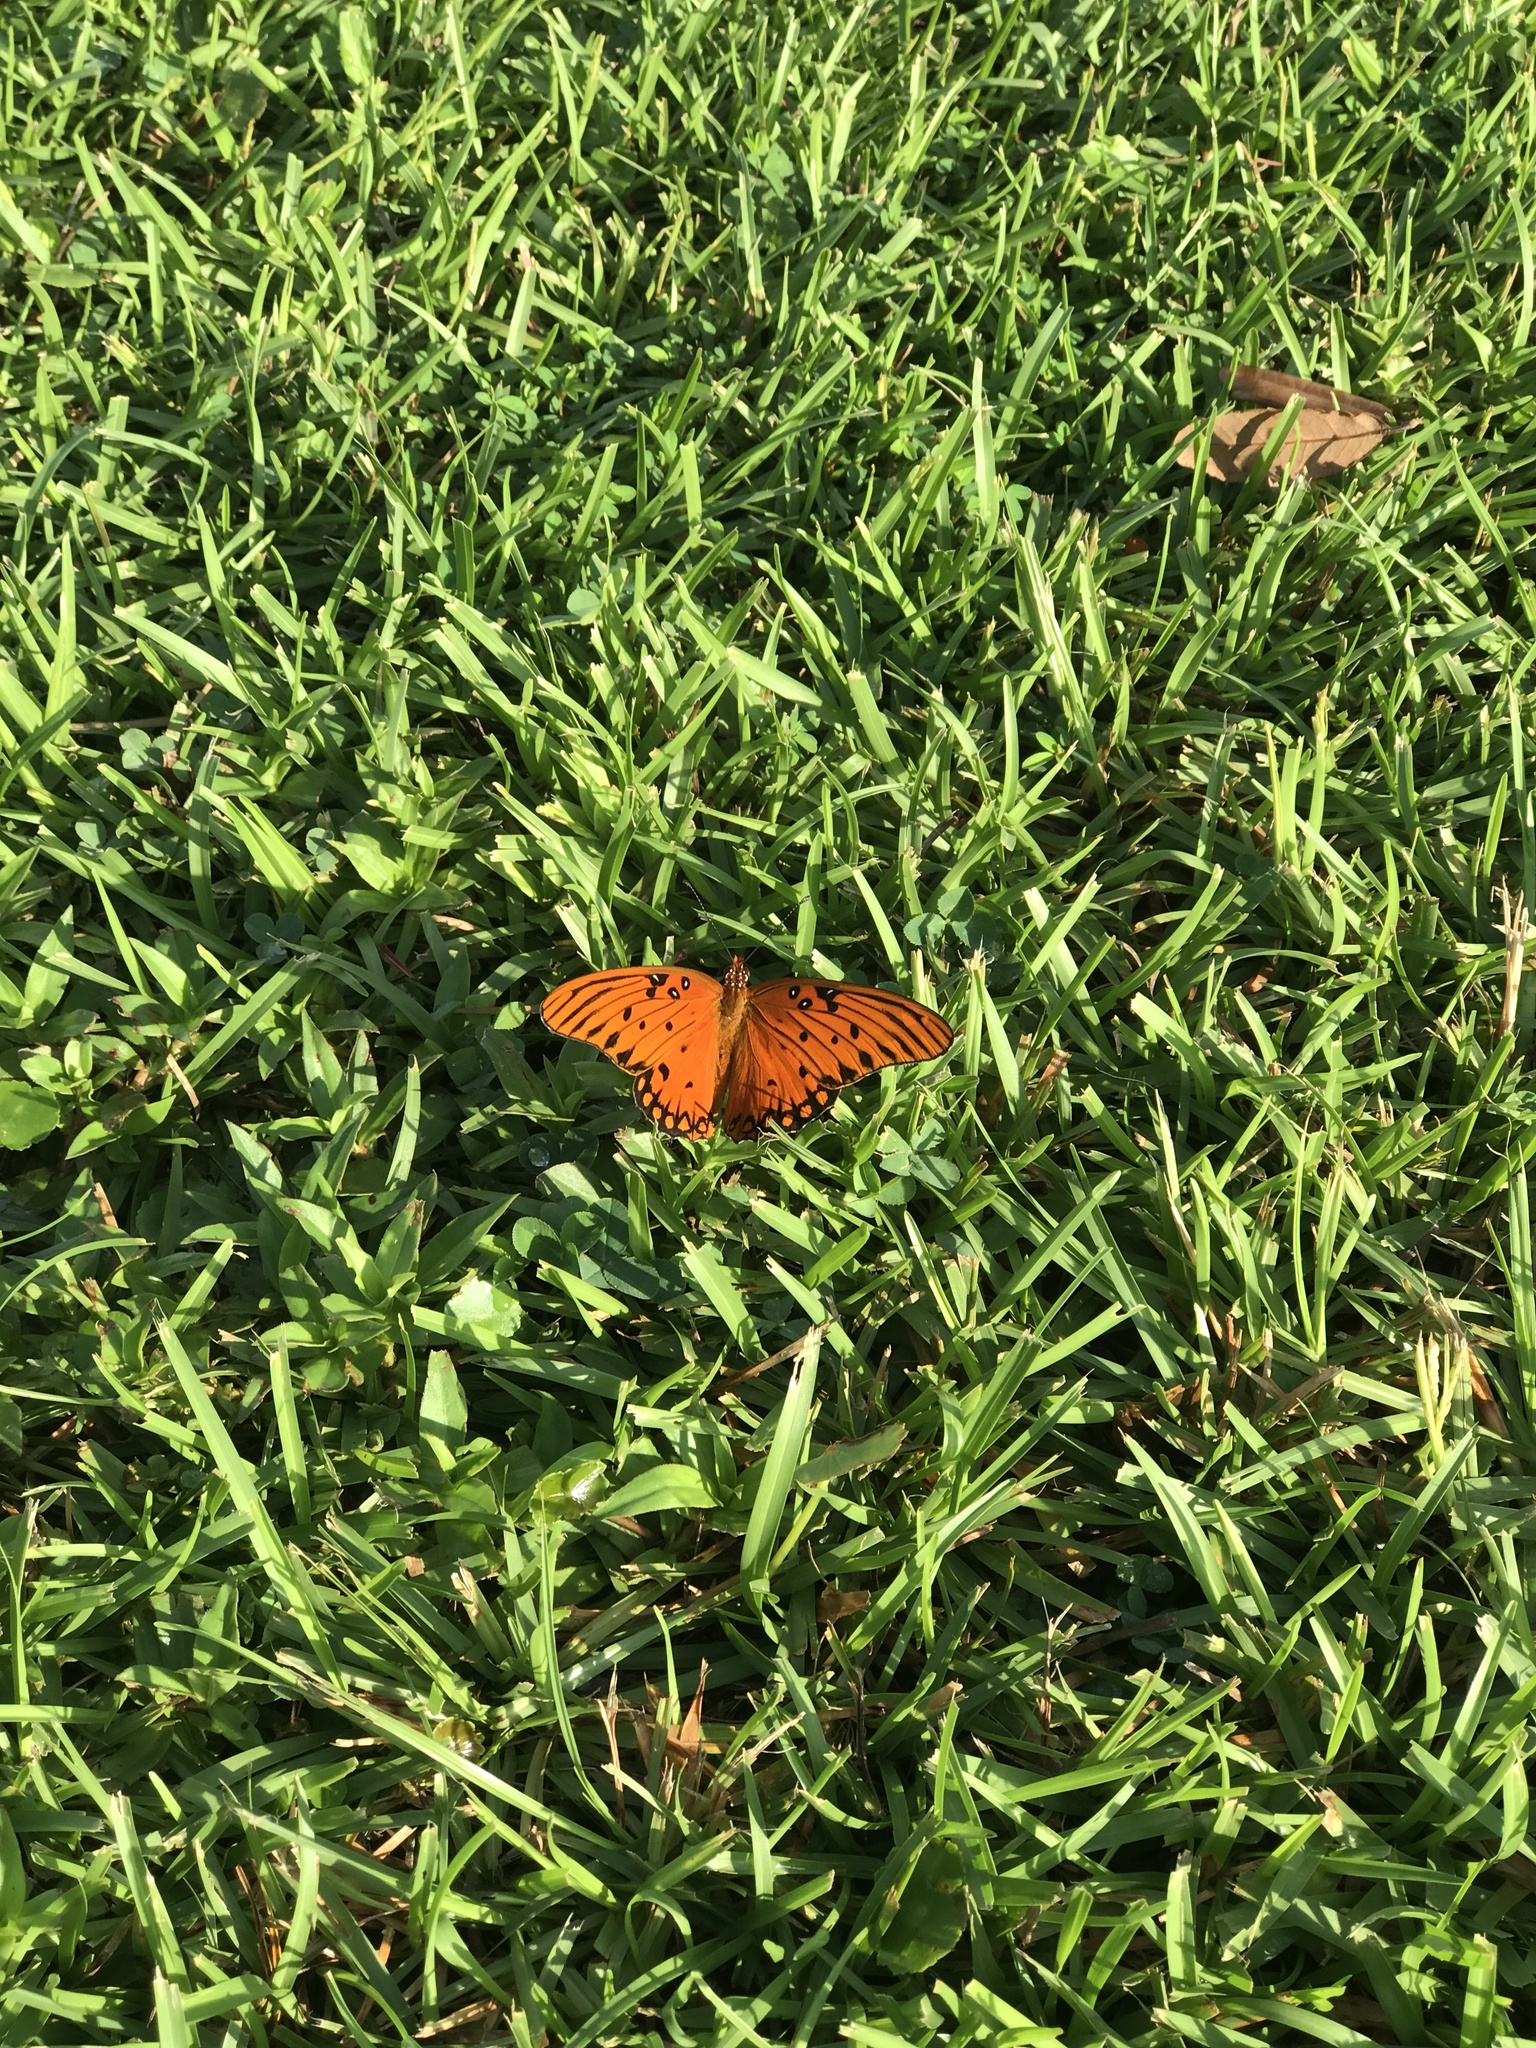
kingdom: Animalia
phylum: Arthropoda
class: Insecta
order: Lepidoptera
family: Nymphalidae
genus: Dione
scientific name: Dione vanillae
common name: Gulf fritillary
